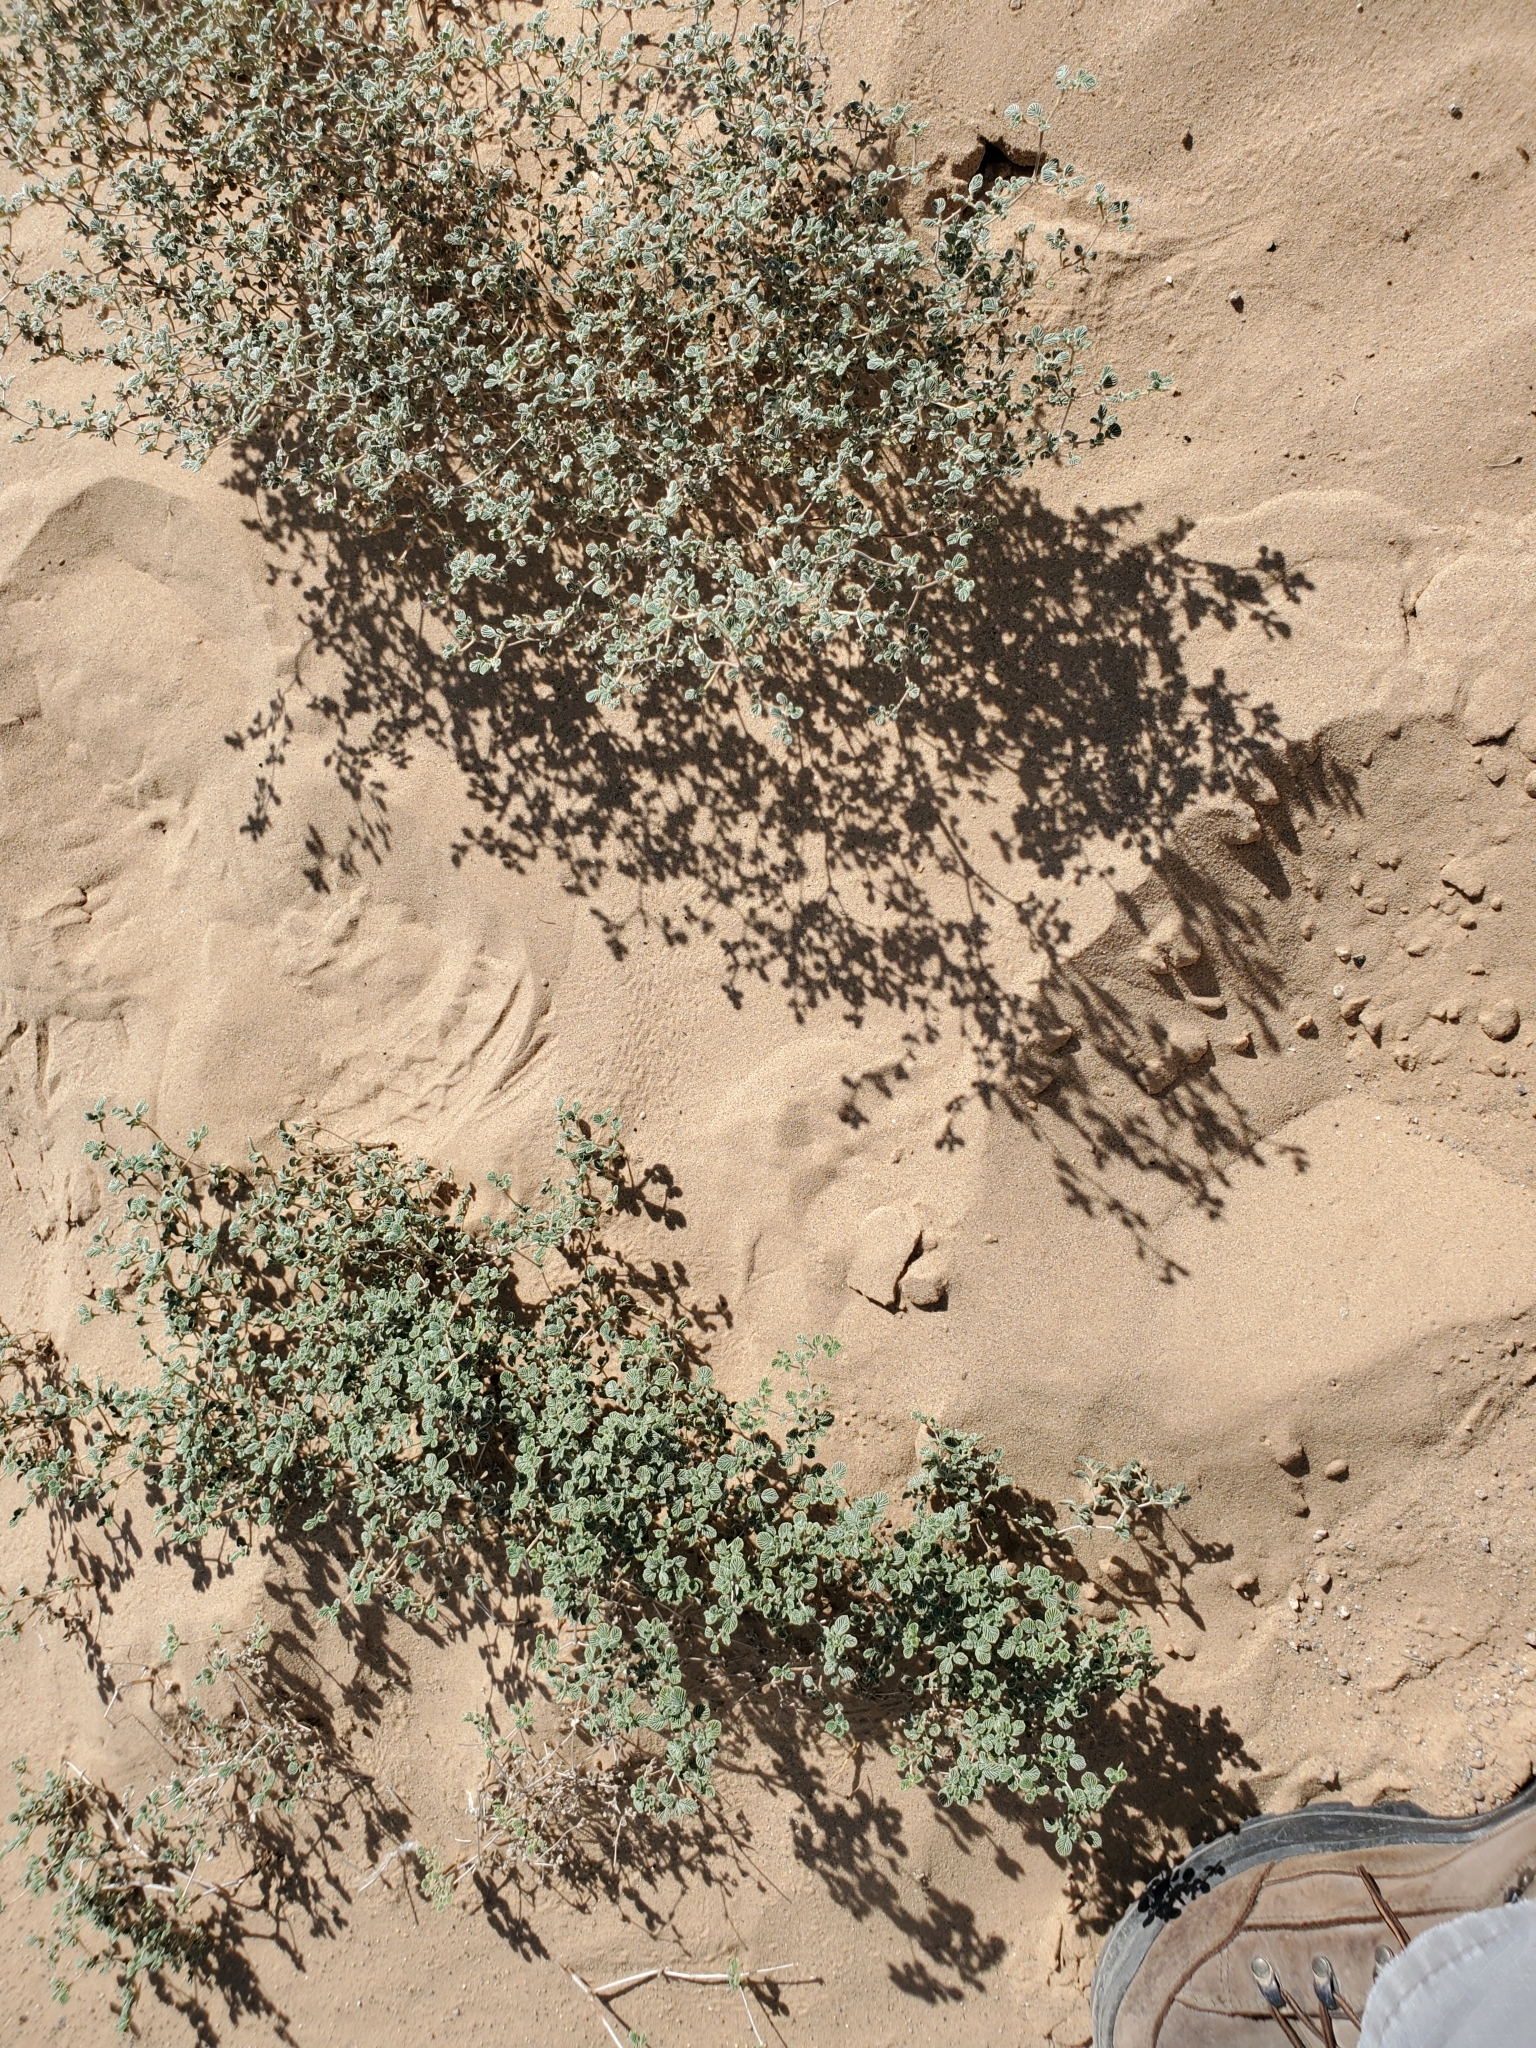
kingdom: Plantae
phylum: Tracheophyta
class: Magnoliopsida
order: Boraginales
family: Ehretiaceae
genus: Tiquilia
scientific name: Tiquilia plicata
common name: Fan-leaf tiquilia
